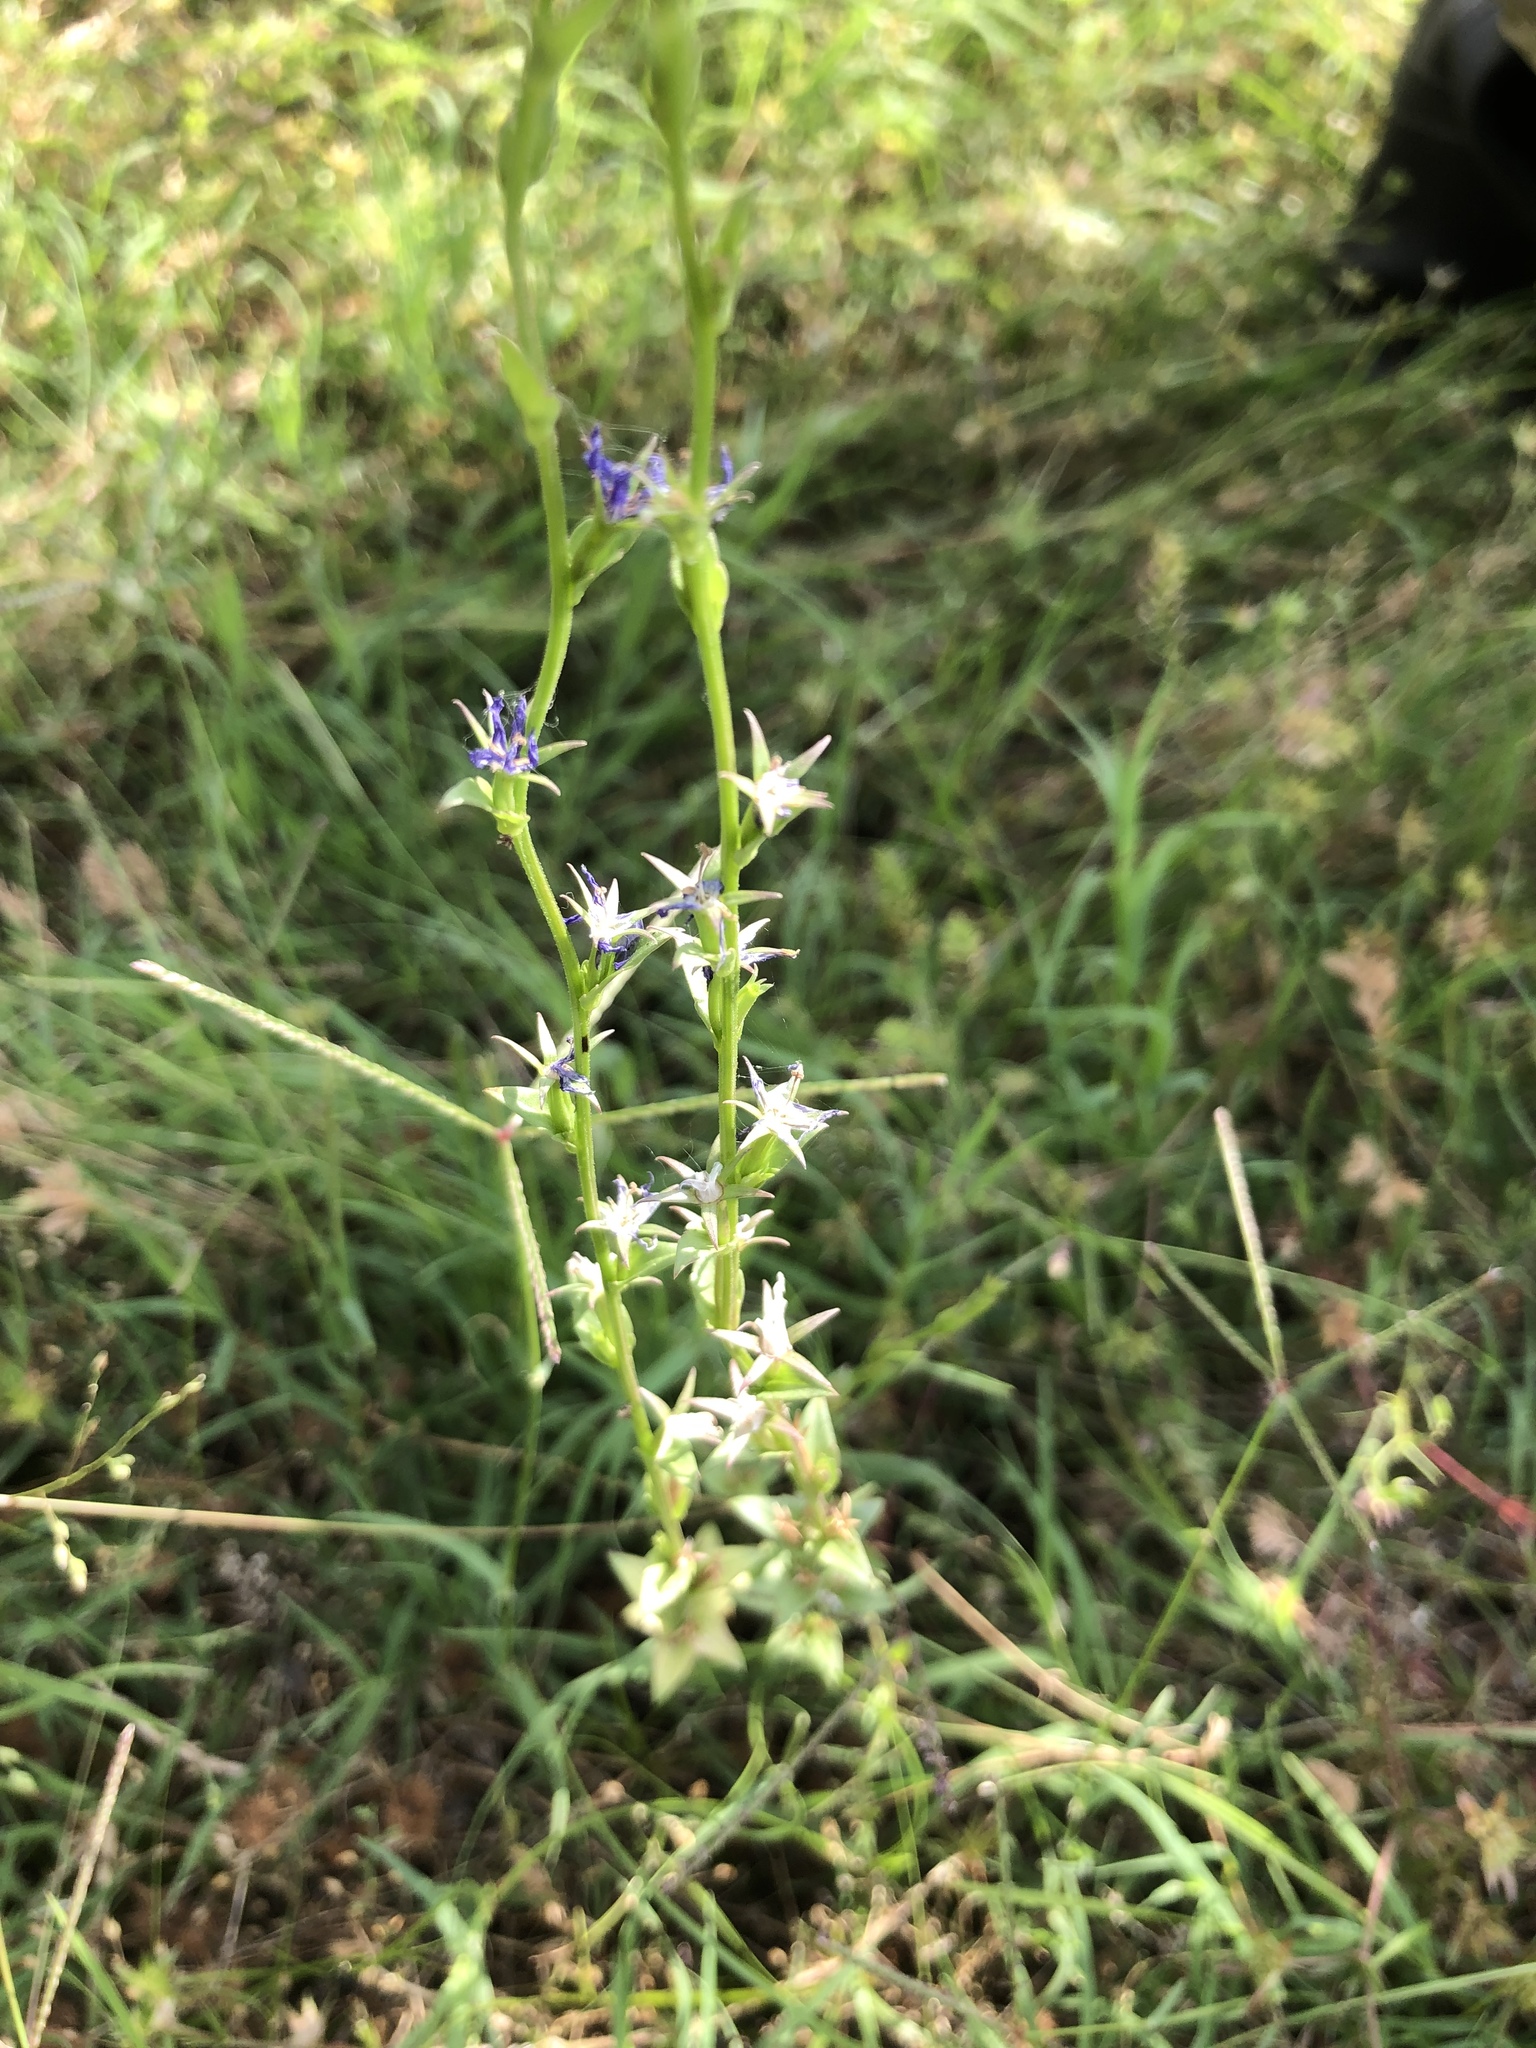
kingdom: Plantae
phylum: Tracheophyta
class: Magnoliopsida
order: Asterales
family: Campanulaceae
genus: Triodanis
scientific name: Triodanis perfoliata
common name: Clasping venus' looking-glass
